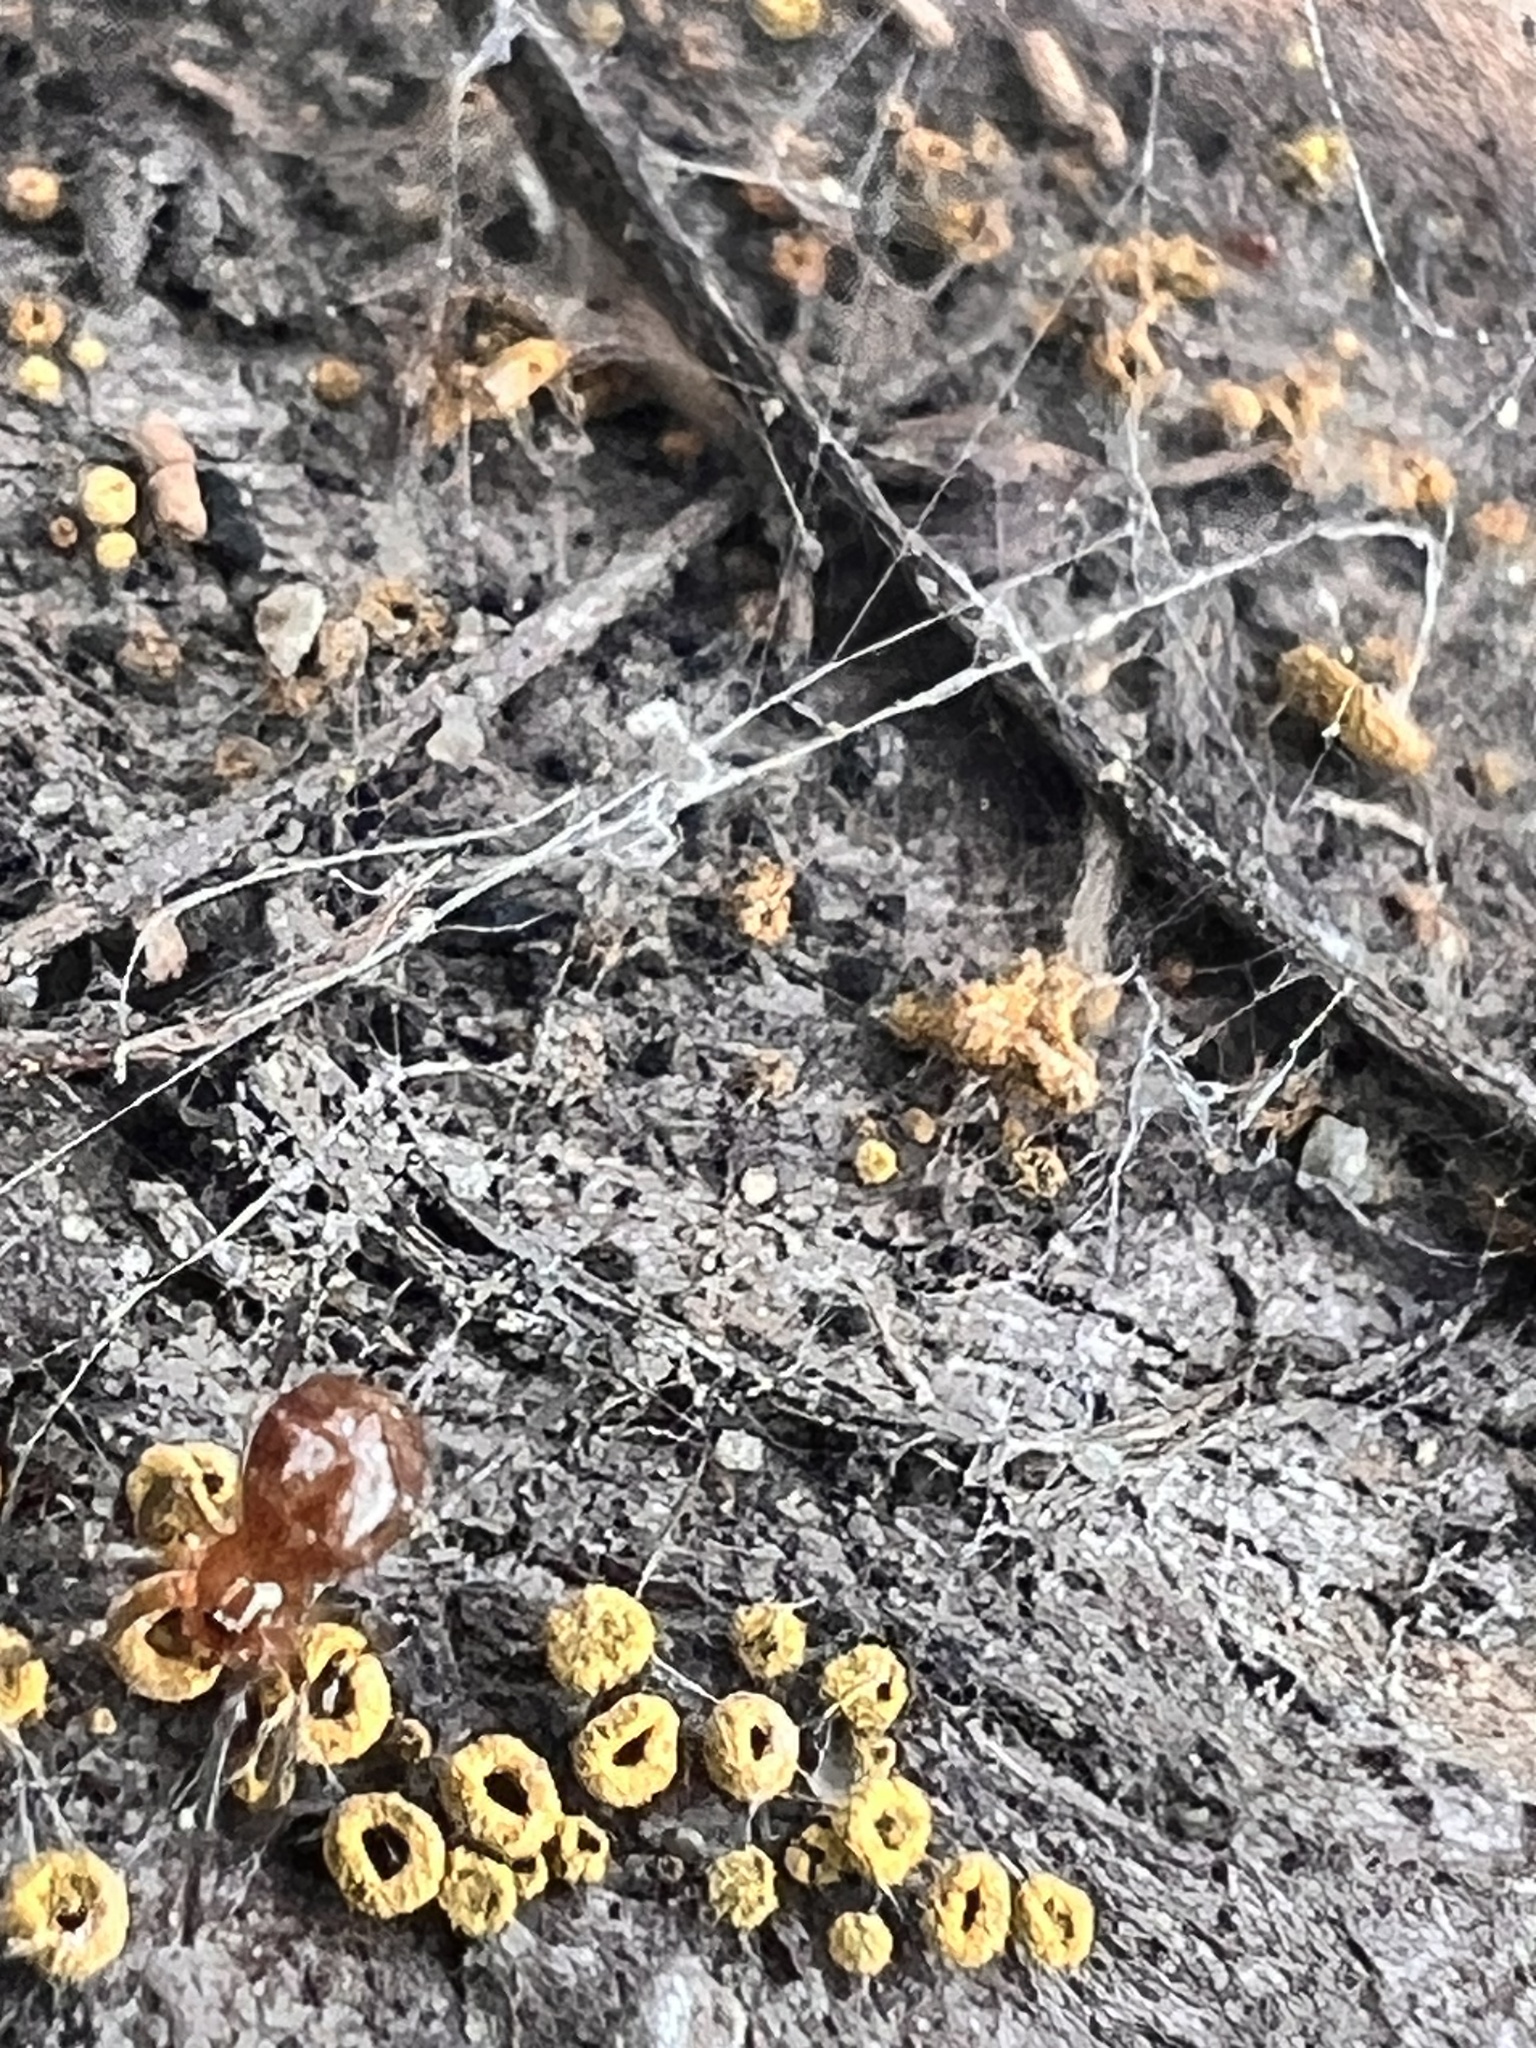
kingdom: Animalia
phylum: Arthropoda
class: Arachnida
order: Araneae
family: Theridiidae
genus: Steatoda
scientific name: Steatoda capensis
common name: Cobweb weaver
